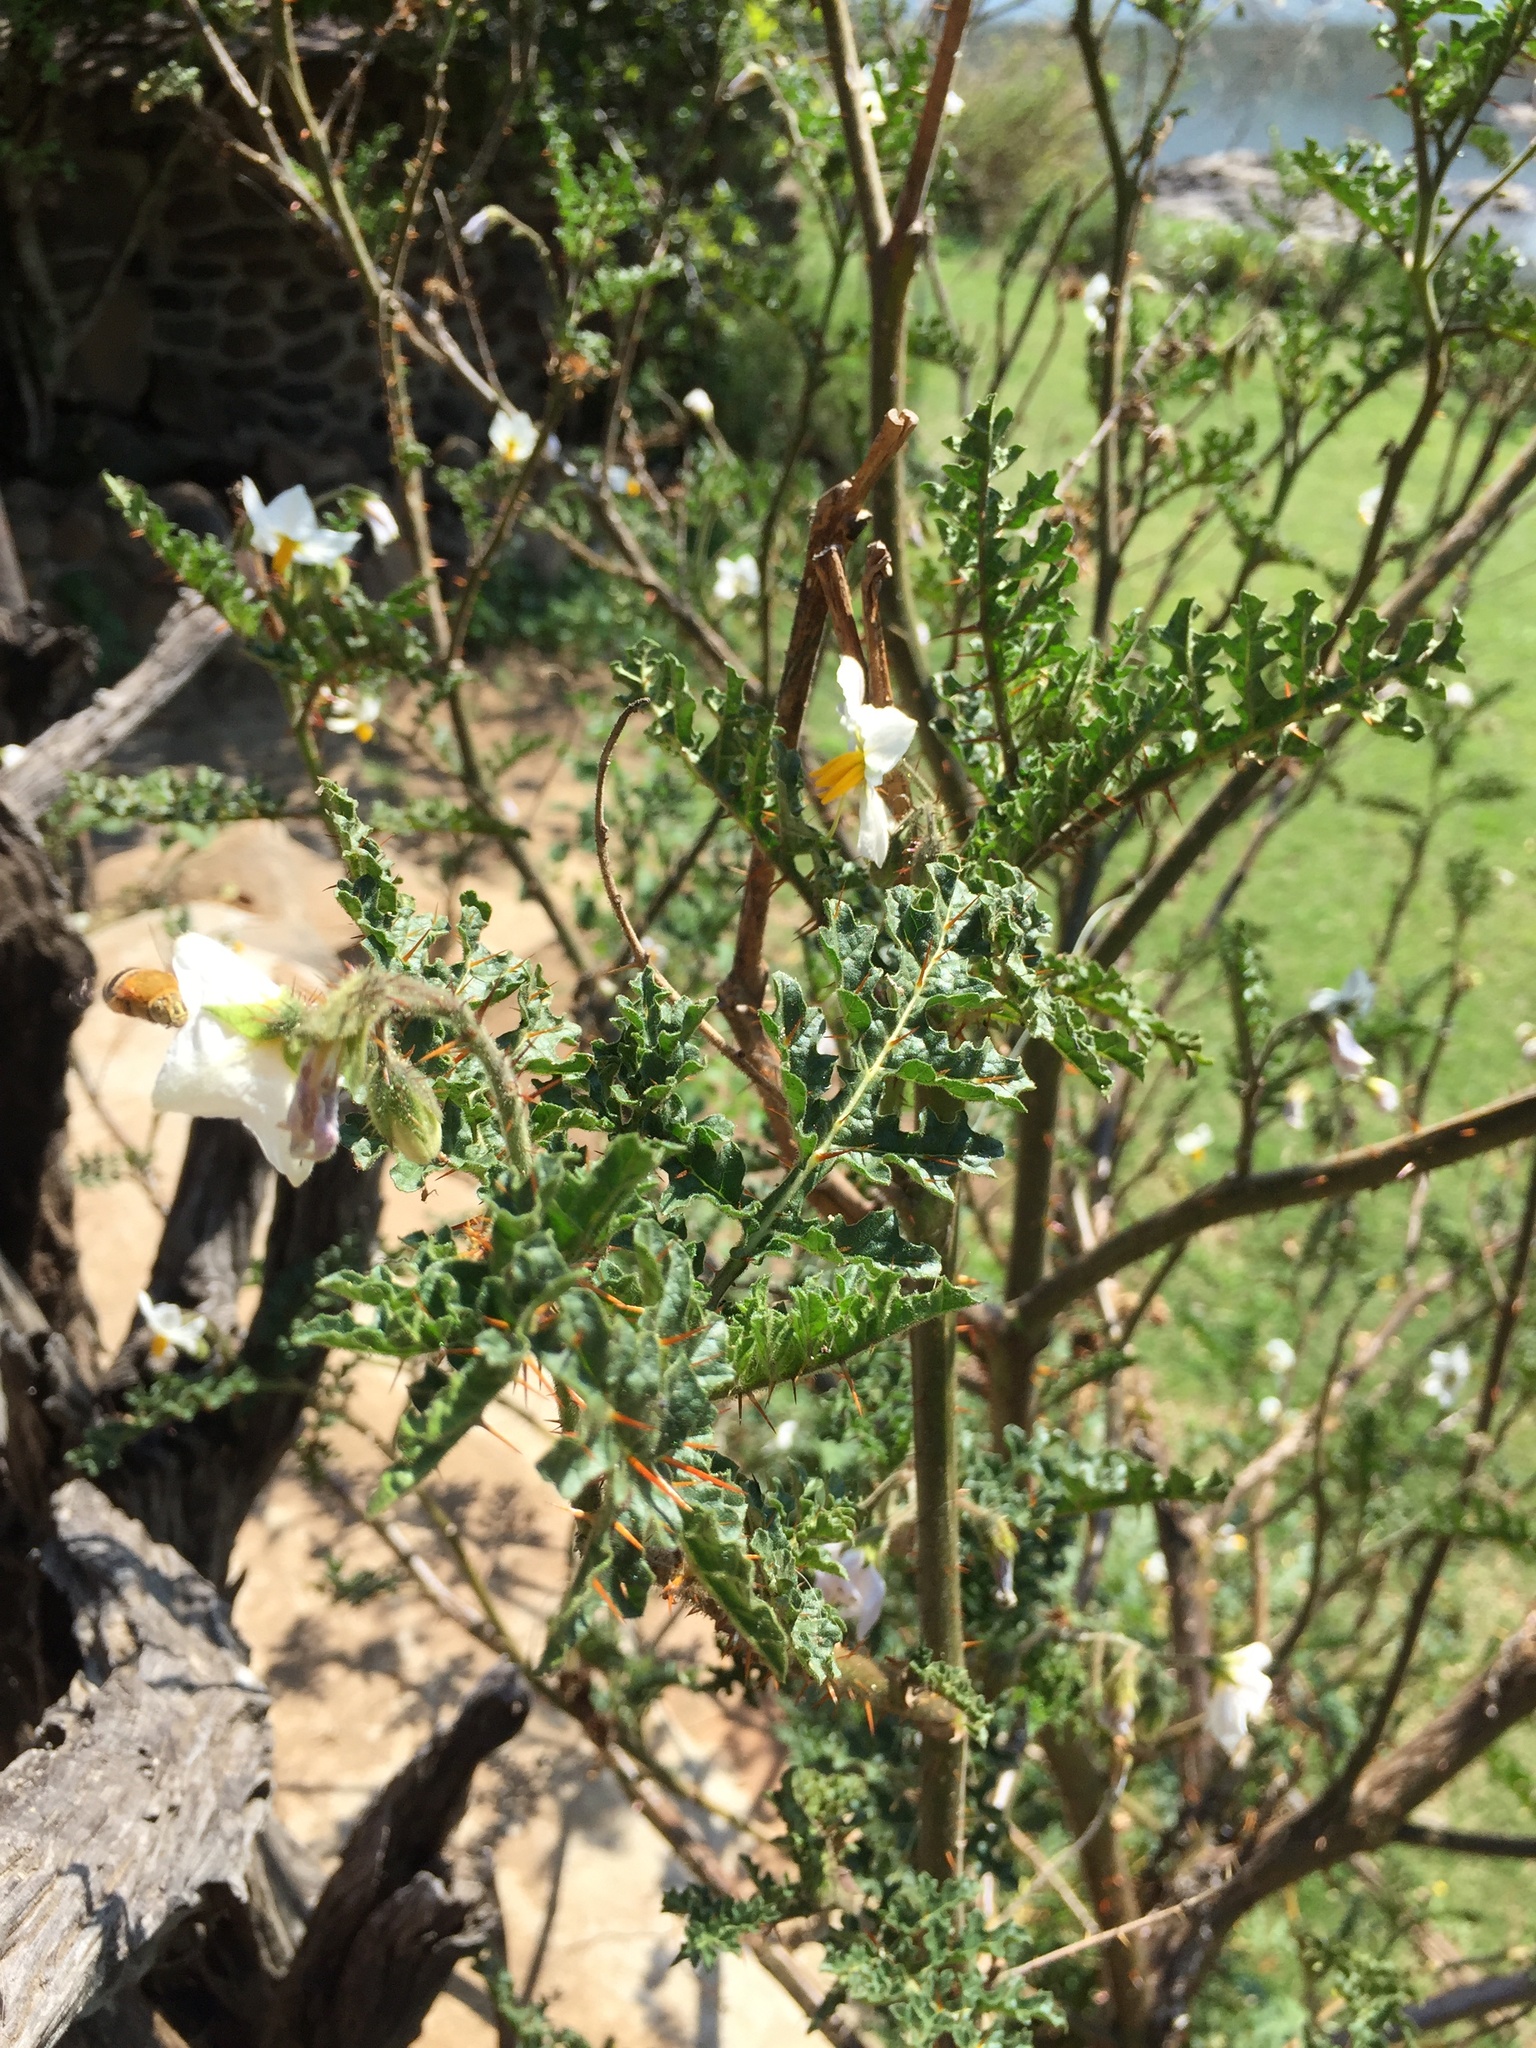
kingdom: Plantae
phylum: Tracheophyta
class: Magnoliopsida
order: Solanales
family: Solanaceae
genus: Solanum
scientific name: Solanum sisymbriifolium
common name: Red buffalo-bur
